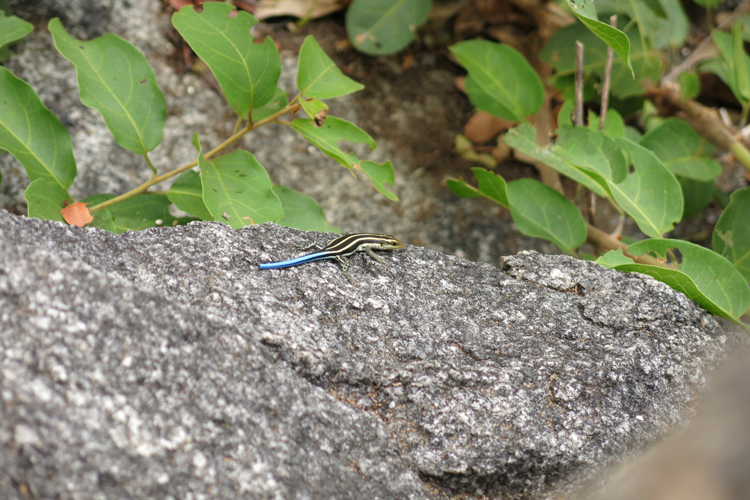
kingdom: Animalia
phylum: Chordata
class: Squamata
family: Scincidae
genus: Trachylepis
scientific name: Trachylepis margaritifera
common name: Rainbow skink
